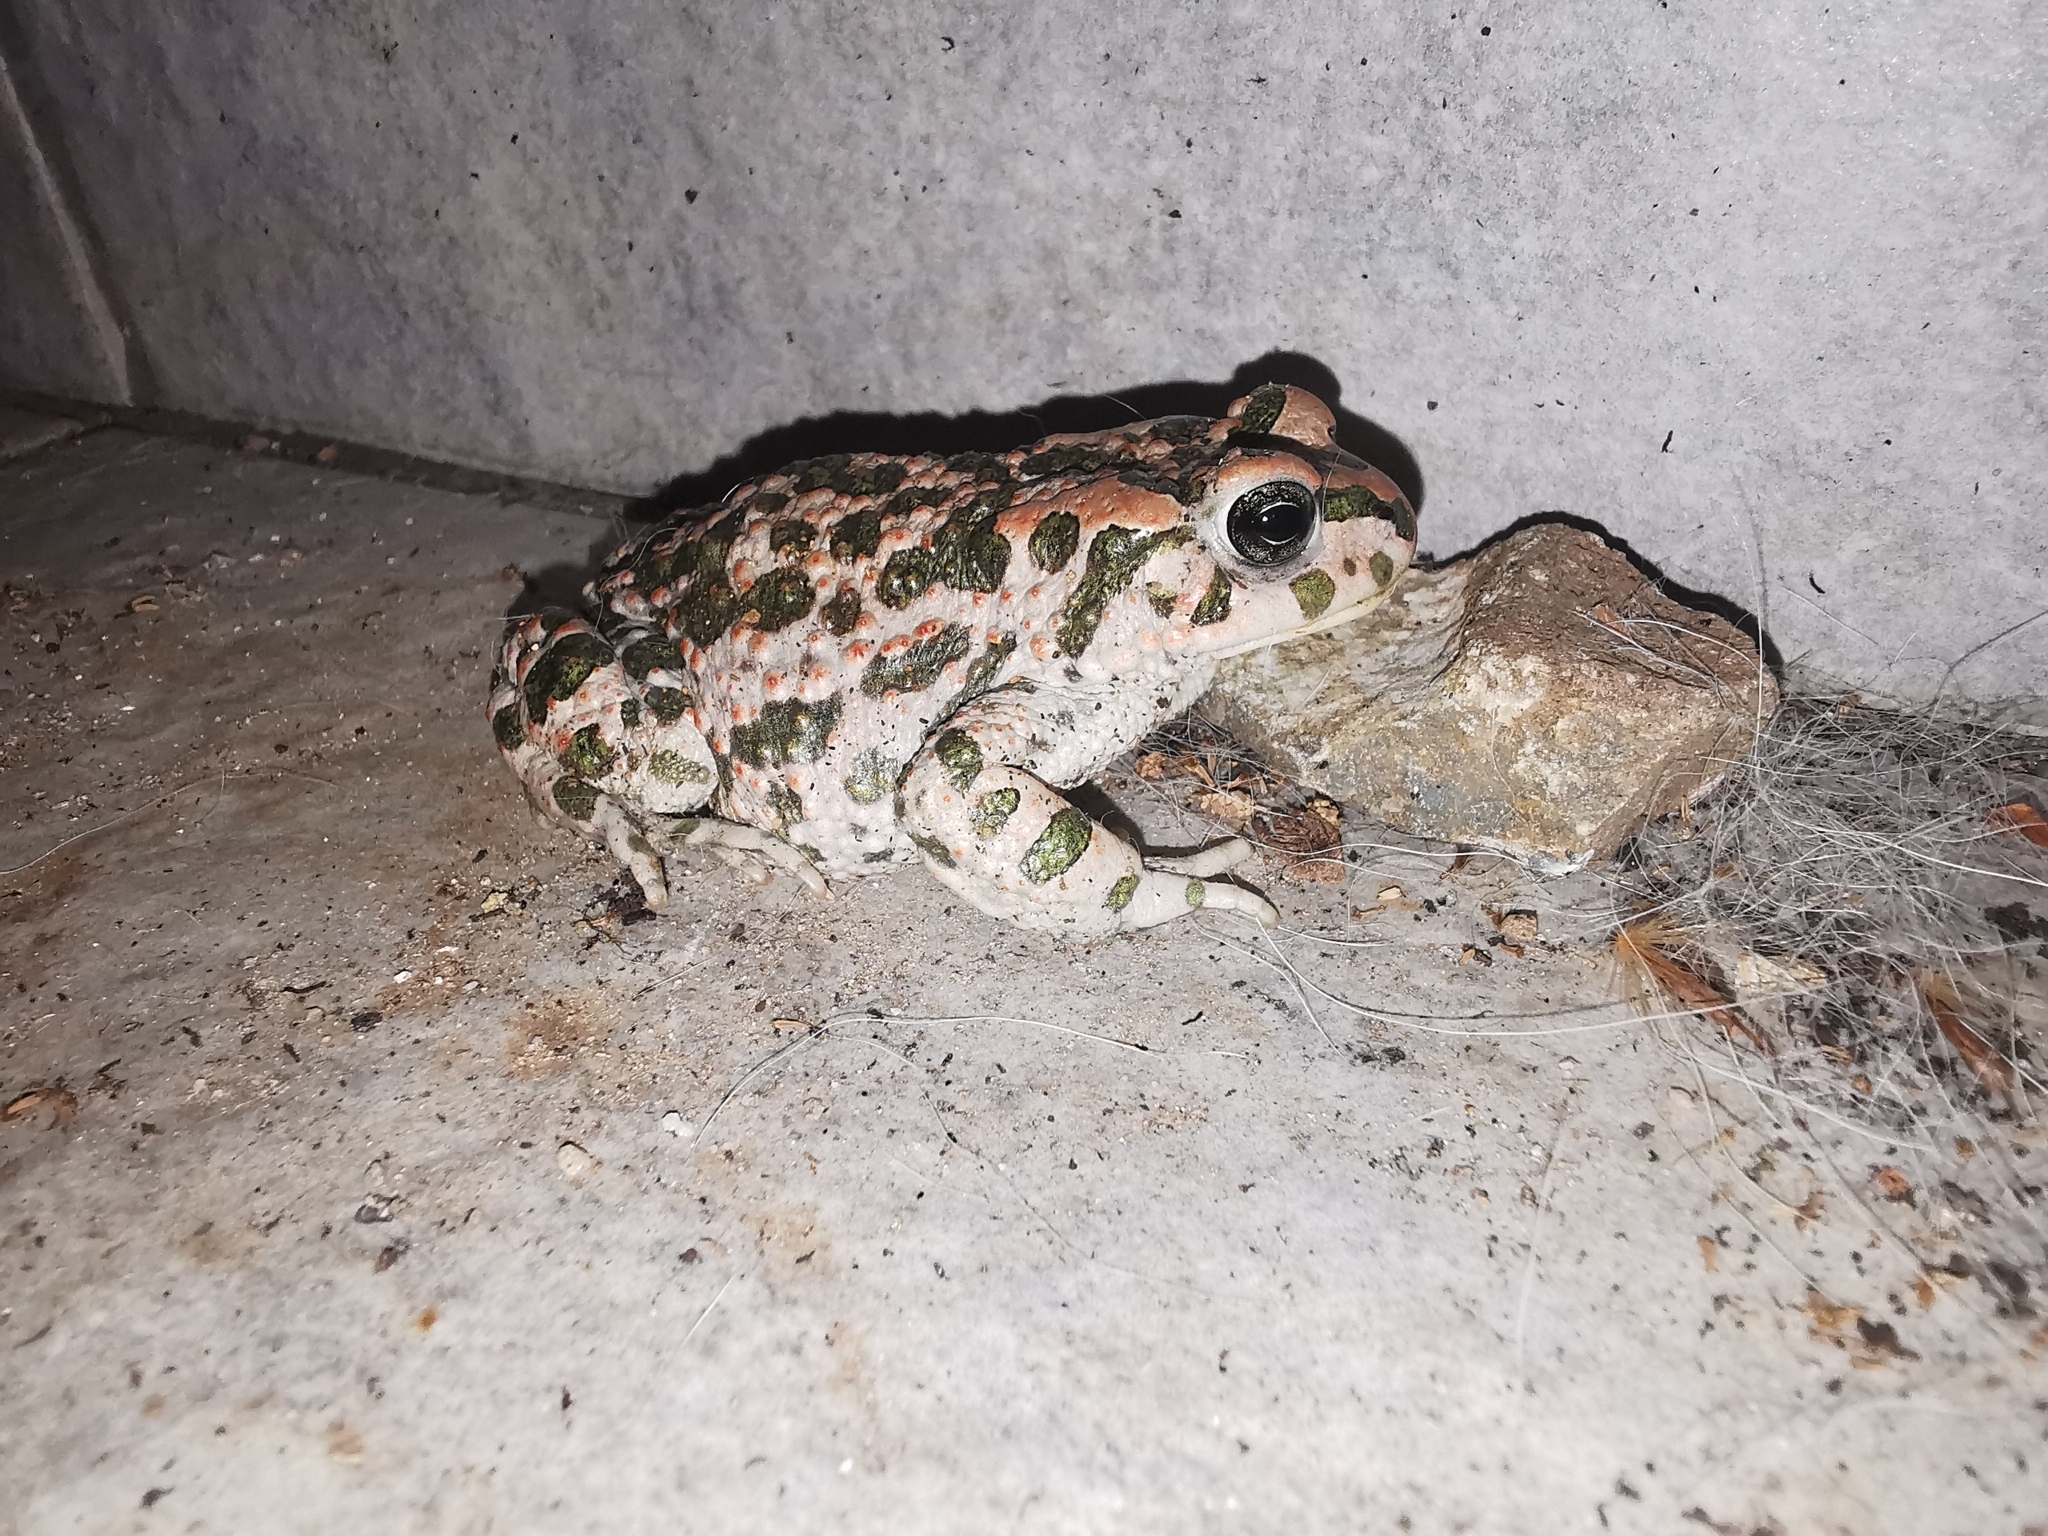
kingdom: Animalia
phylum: Chordata
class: Amphibia
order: Anura
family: Bufonidae
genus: Bufotes
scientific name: Bufotes viridis
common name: European green toad
